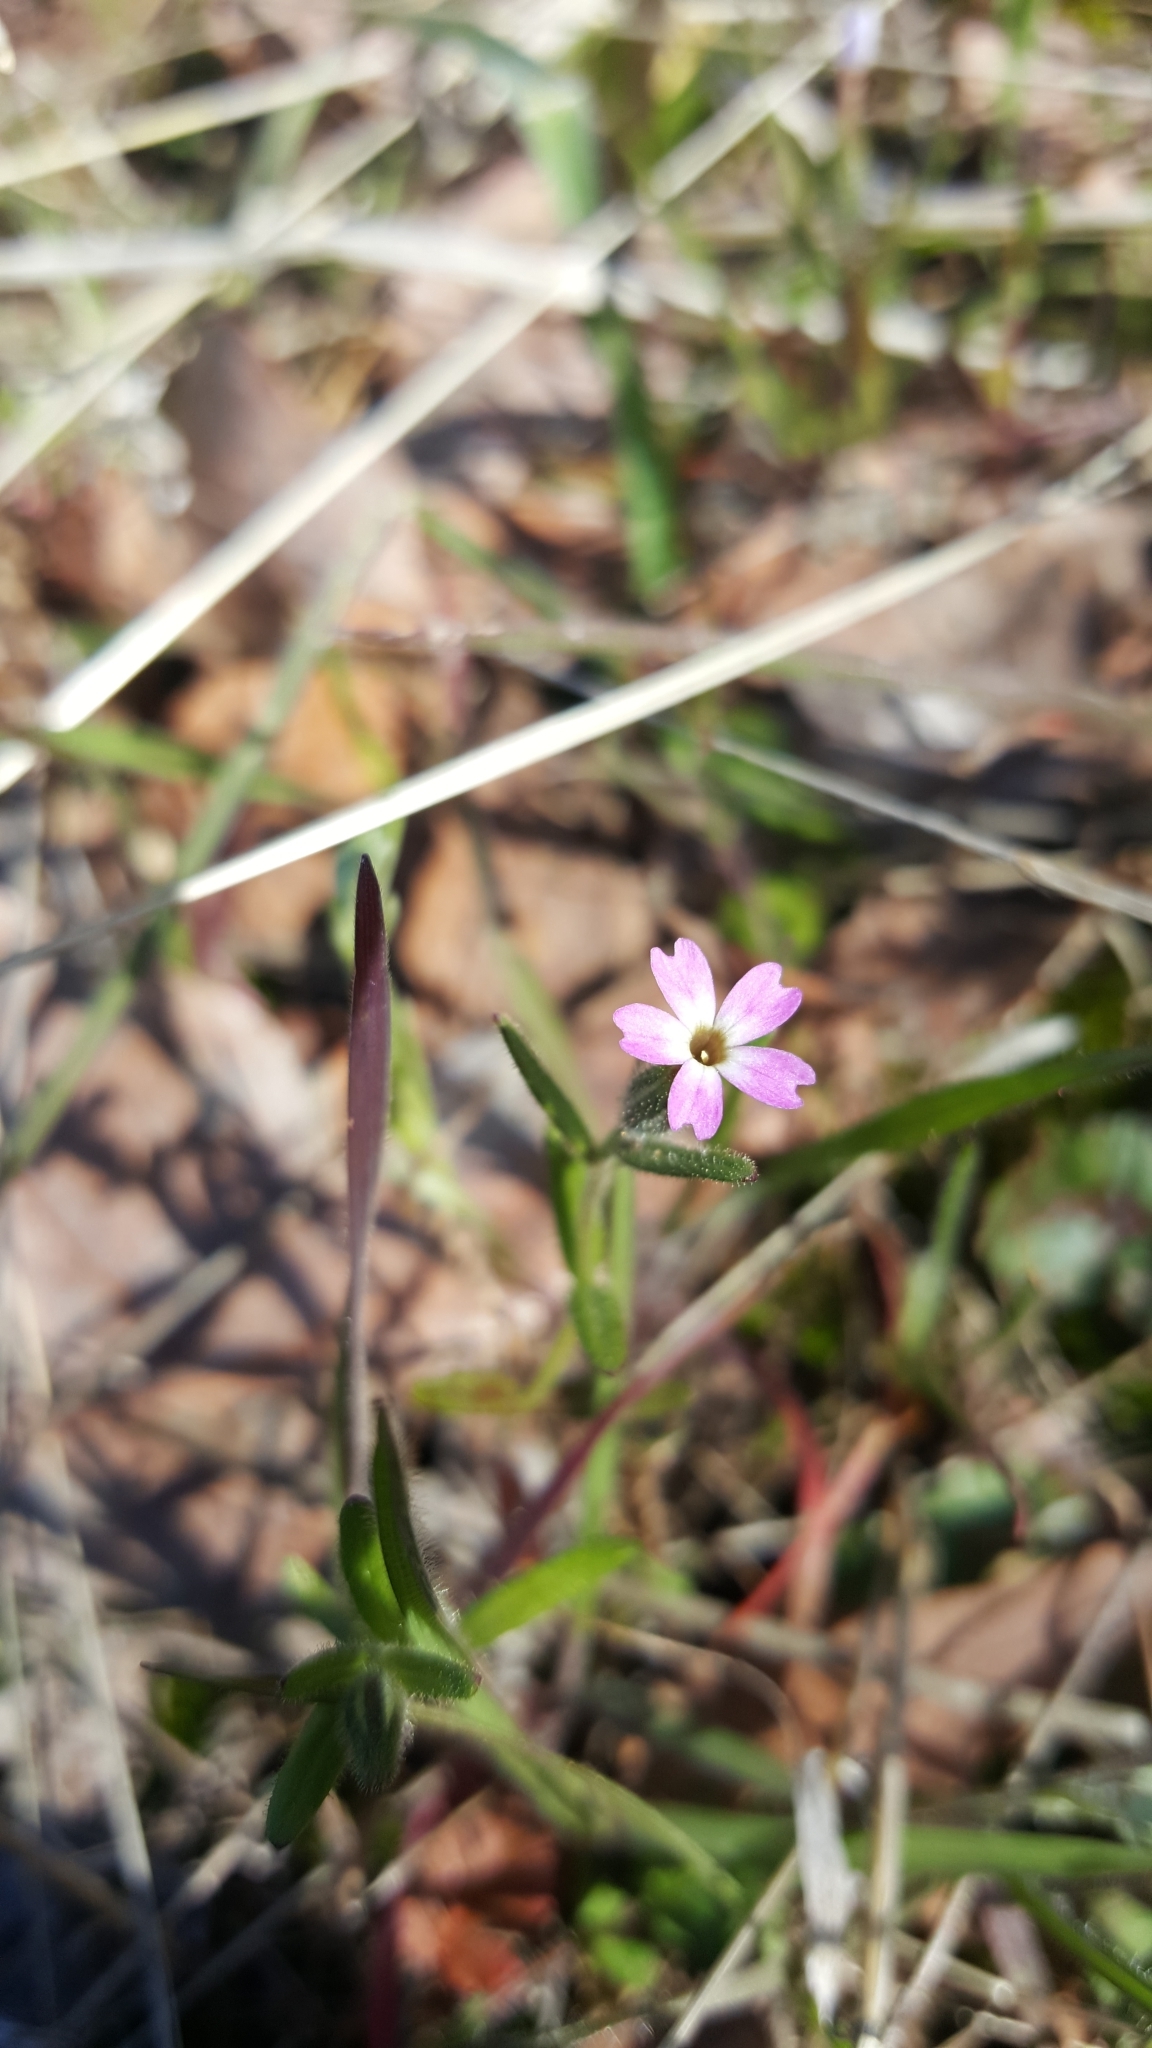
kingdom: Plantae
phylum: Tracheophyta
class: Magnoliopsida
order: Ericales
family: Polemoniaceae
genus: Phlox
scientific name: Phlox gracilis
